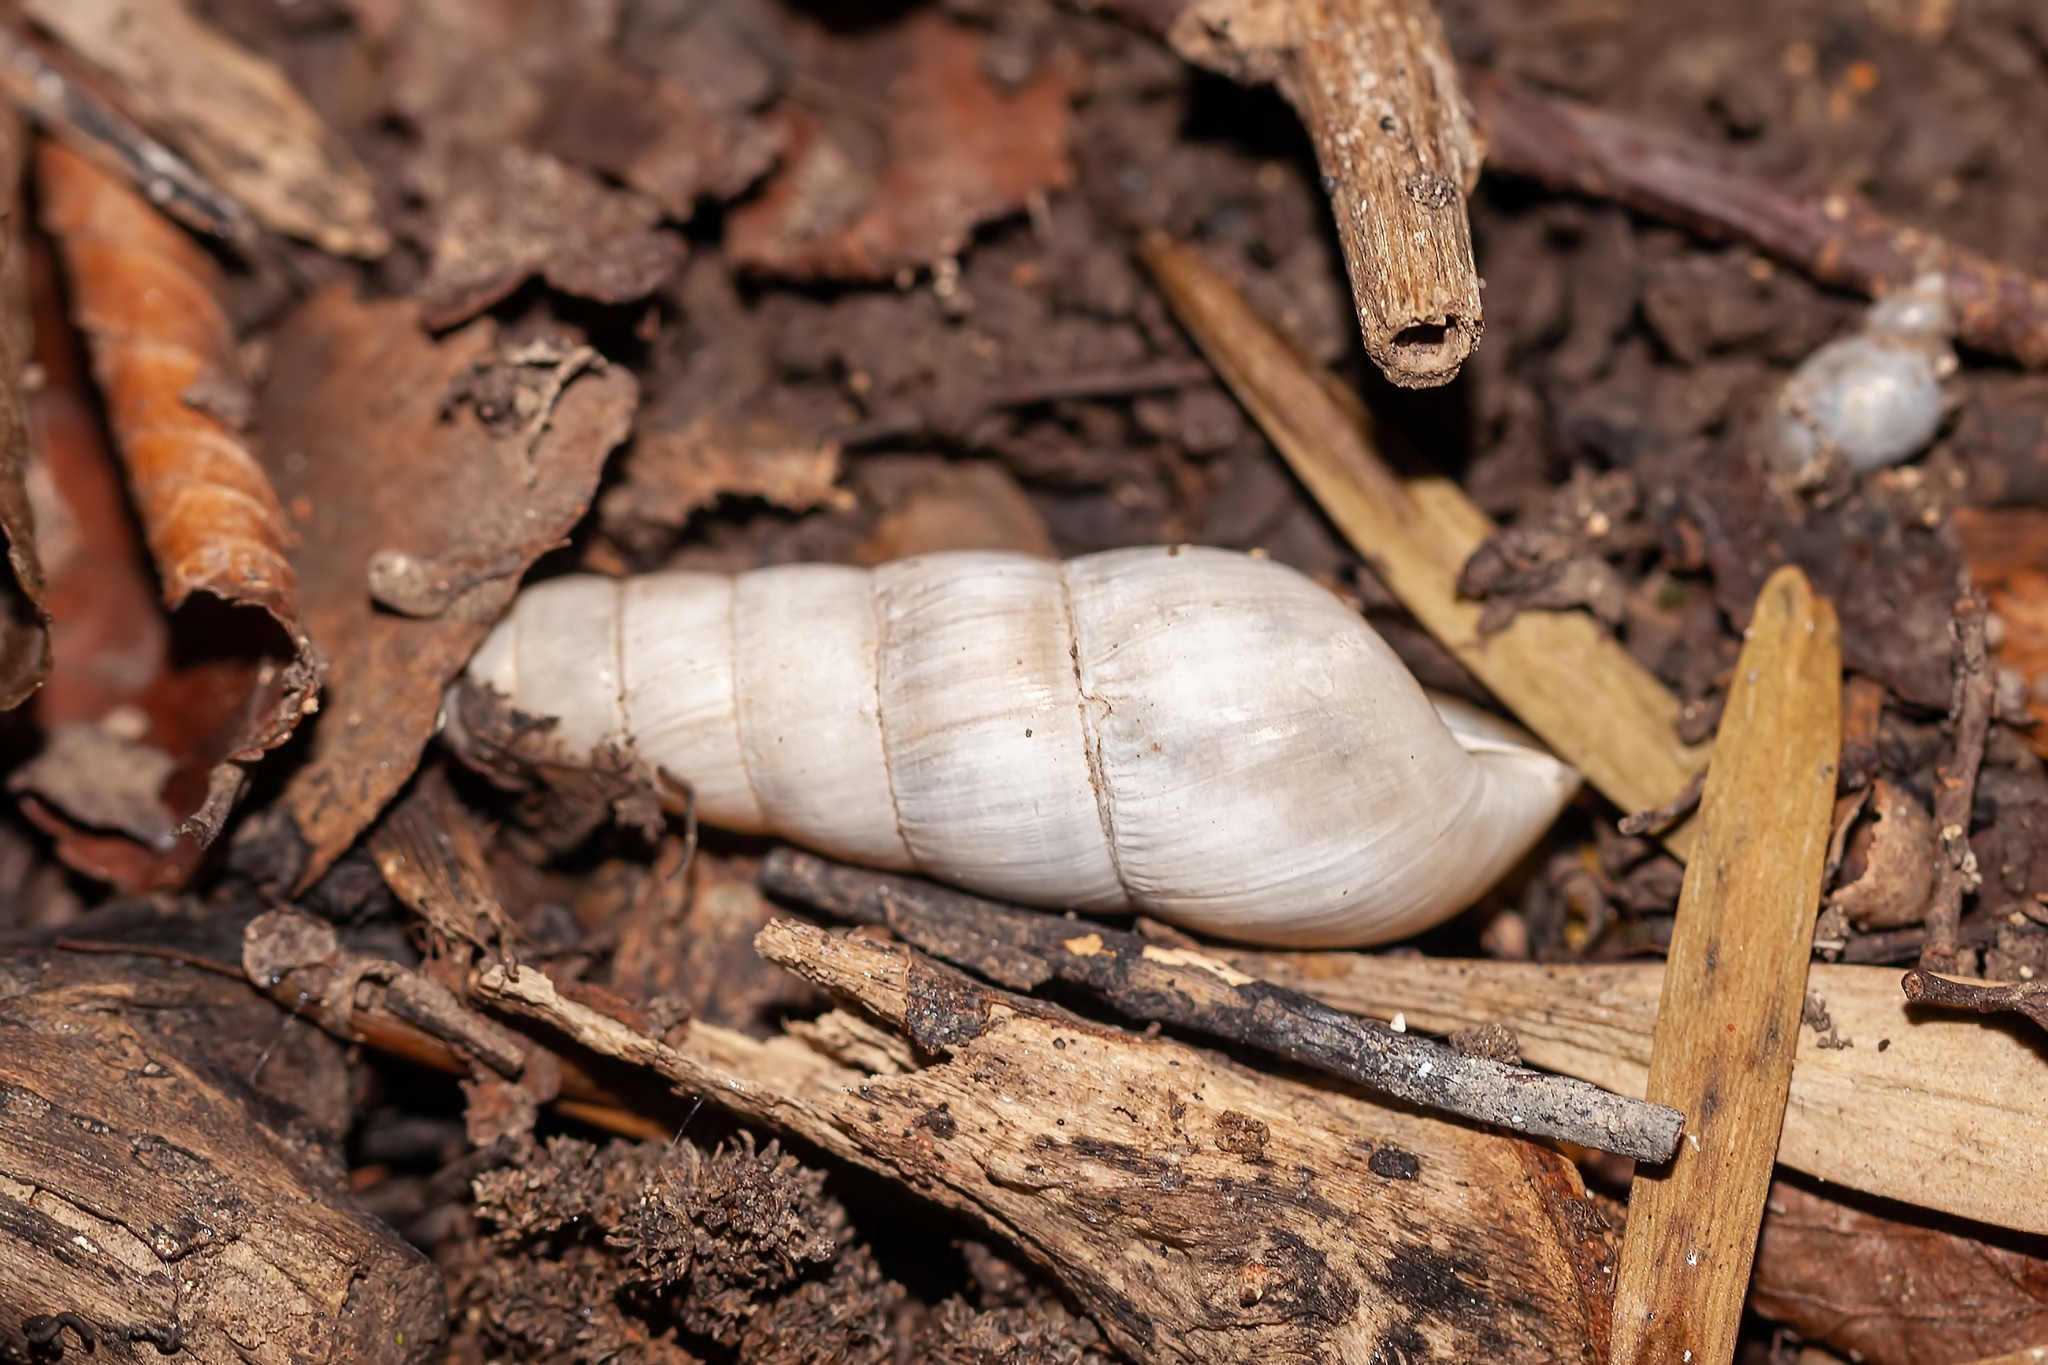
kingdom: Animalia
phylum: Mollusca
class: Gastropoda
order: Stylommatophora
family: Achatinidae
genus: Rumina
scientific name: Rumina decollata
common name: Decollate snail
